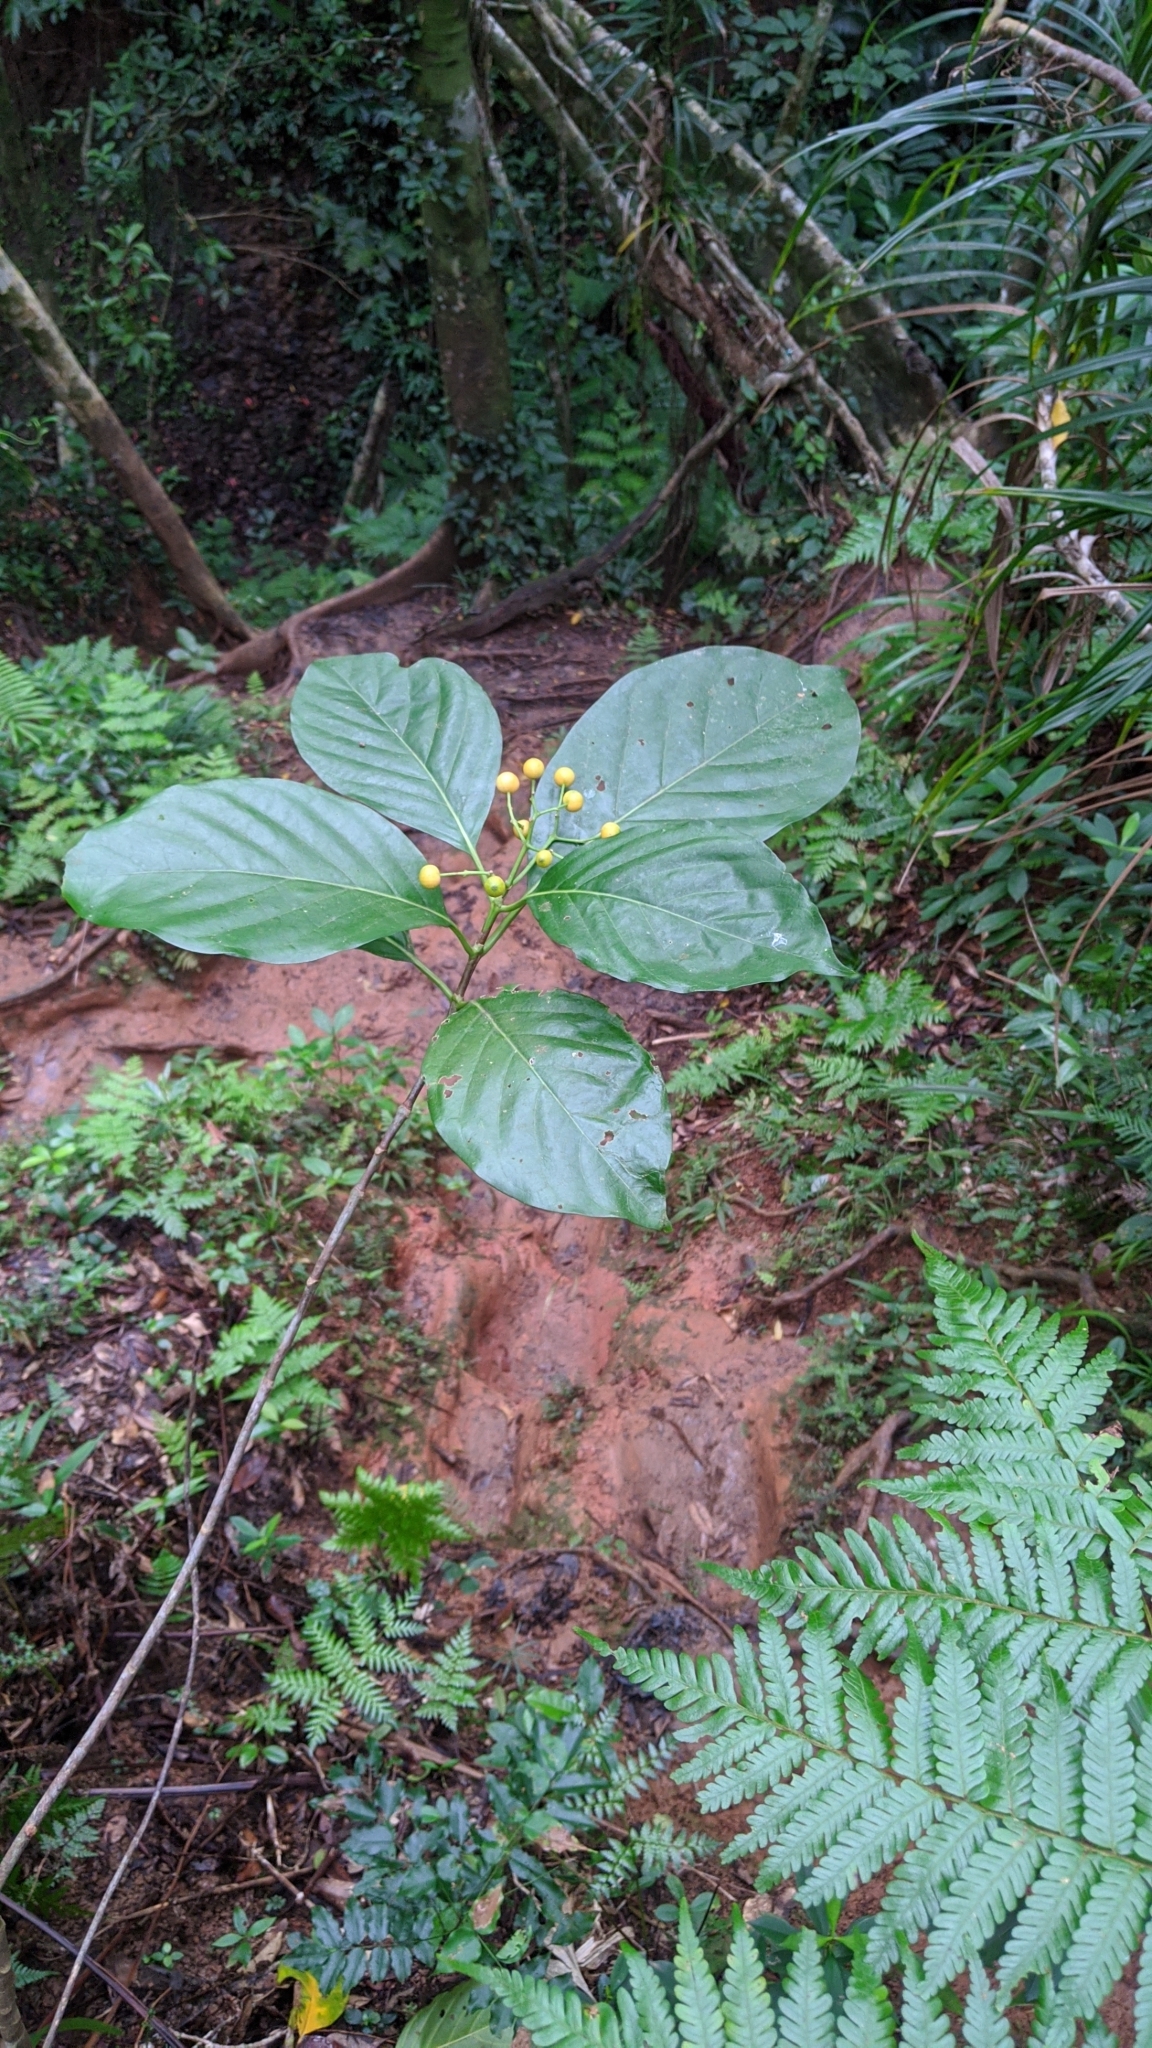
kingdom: Plantae
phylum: Tracheophyta
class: Magnoliopsida
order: Gentianales
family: Rubiaceae
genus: Tarenna
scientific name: Tarenna asiatica
